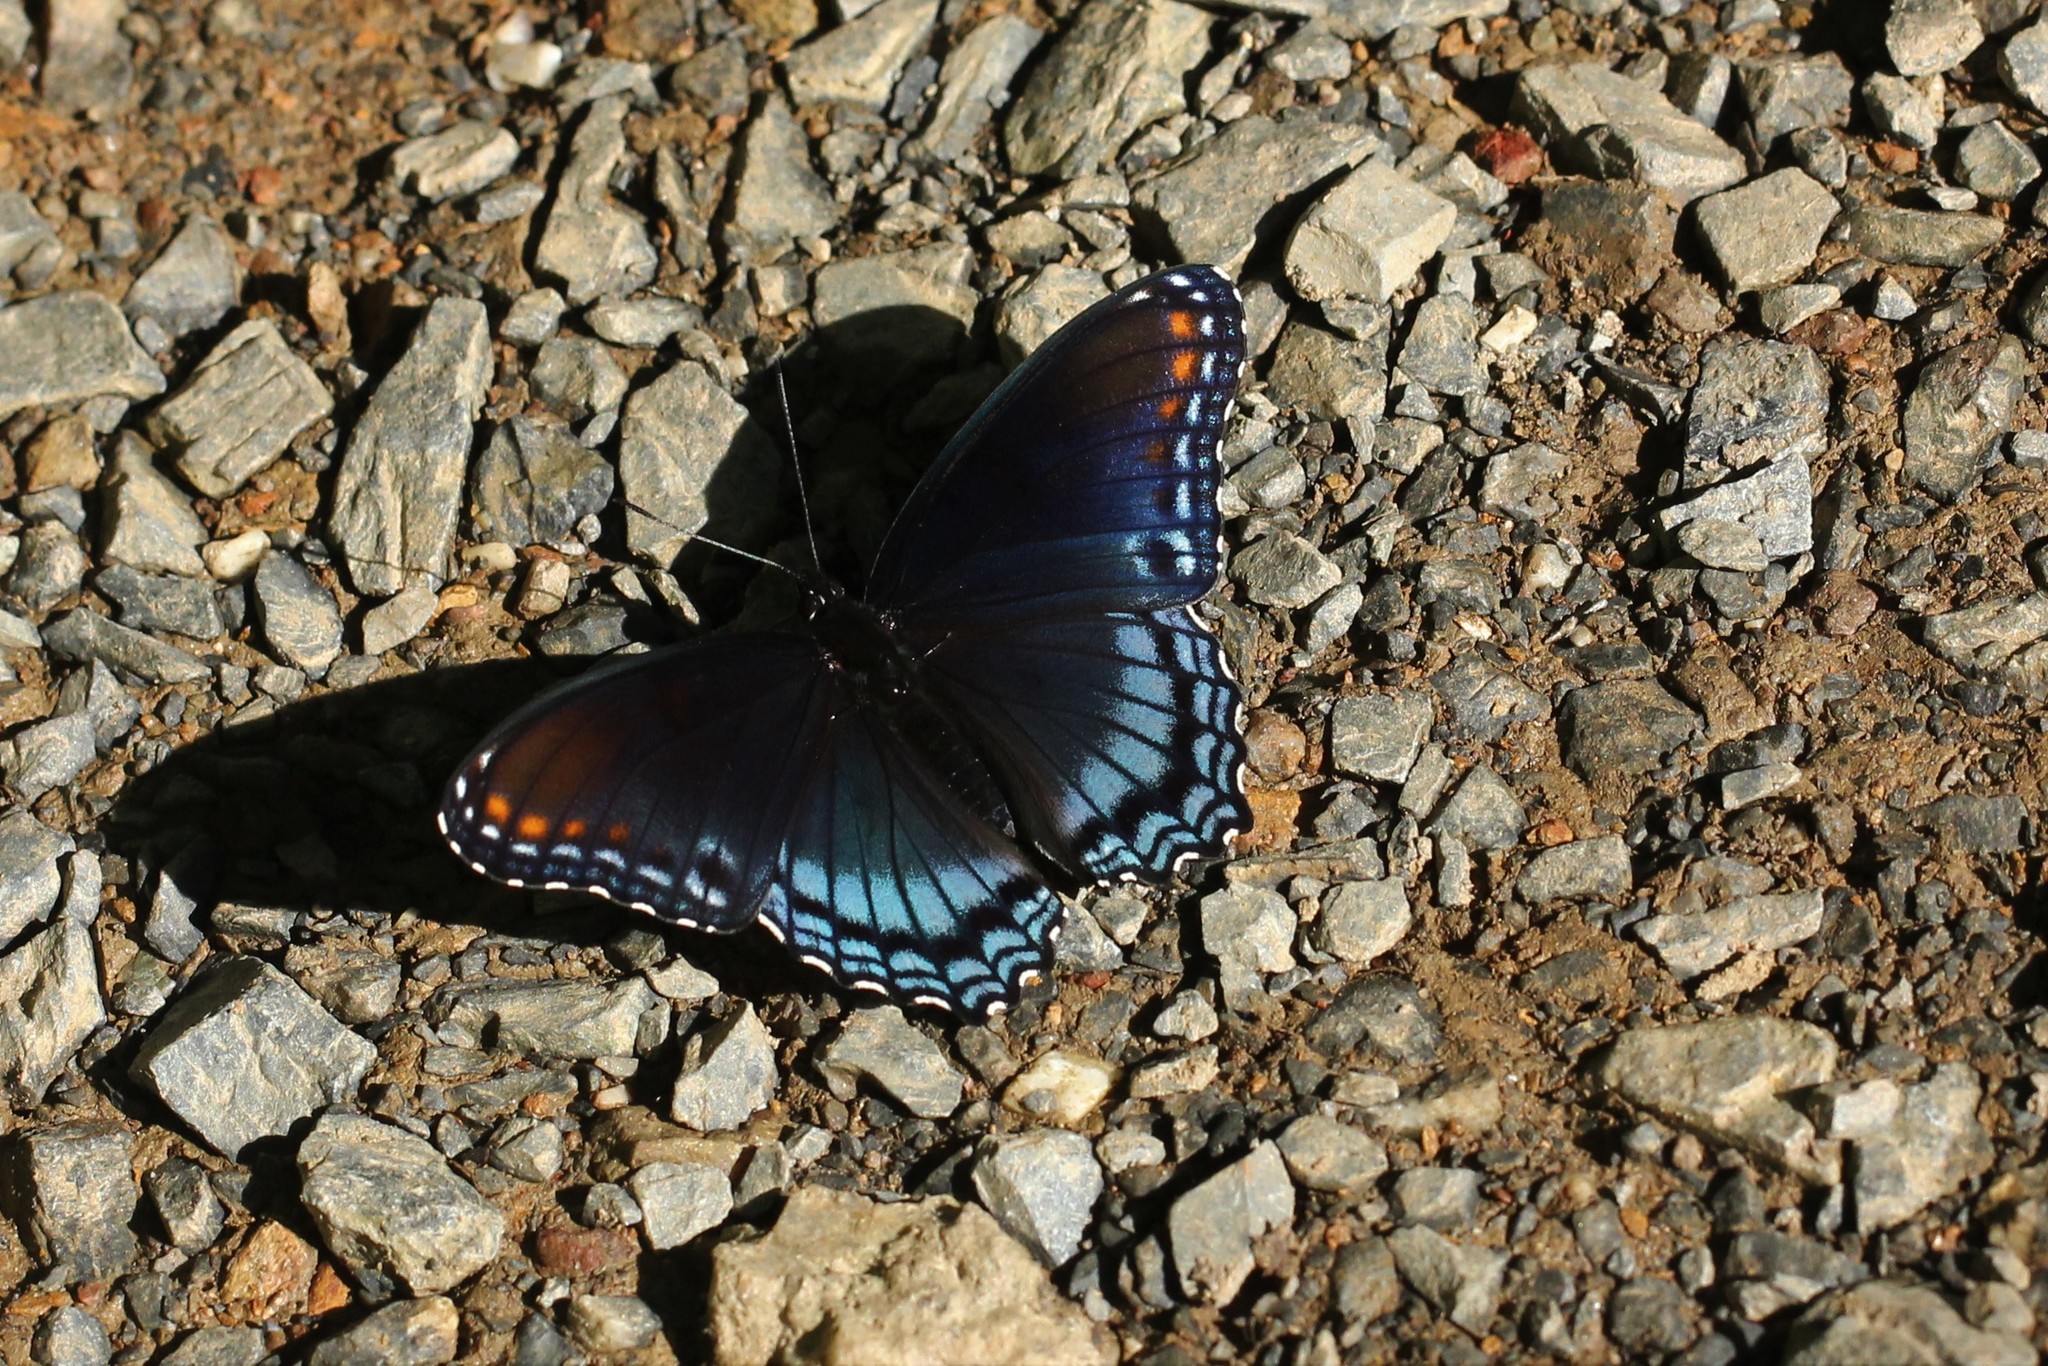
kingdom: Animalia
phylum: Arthropoda
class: Insecta
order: Lepidoptera
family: Nymphalidae
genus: Limenitis
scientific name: Limenitis astyanax
